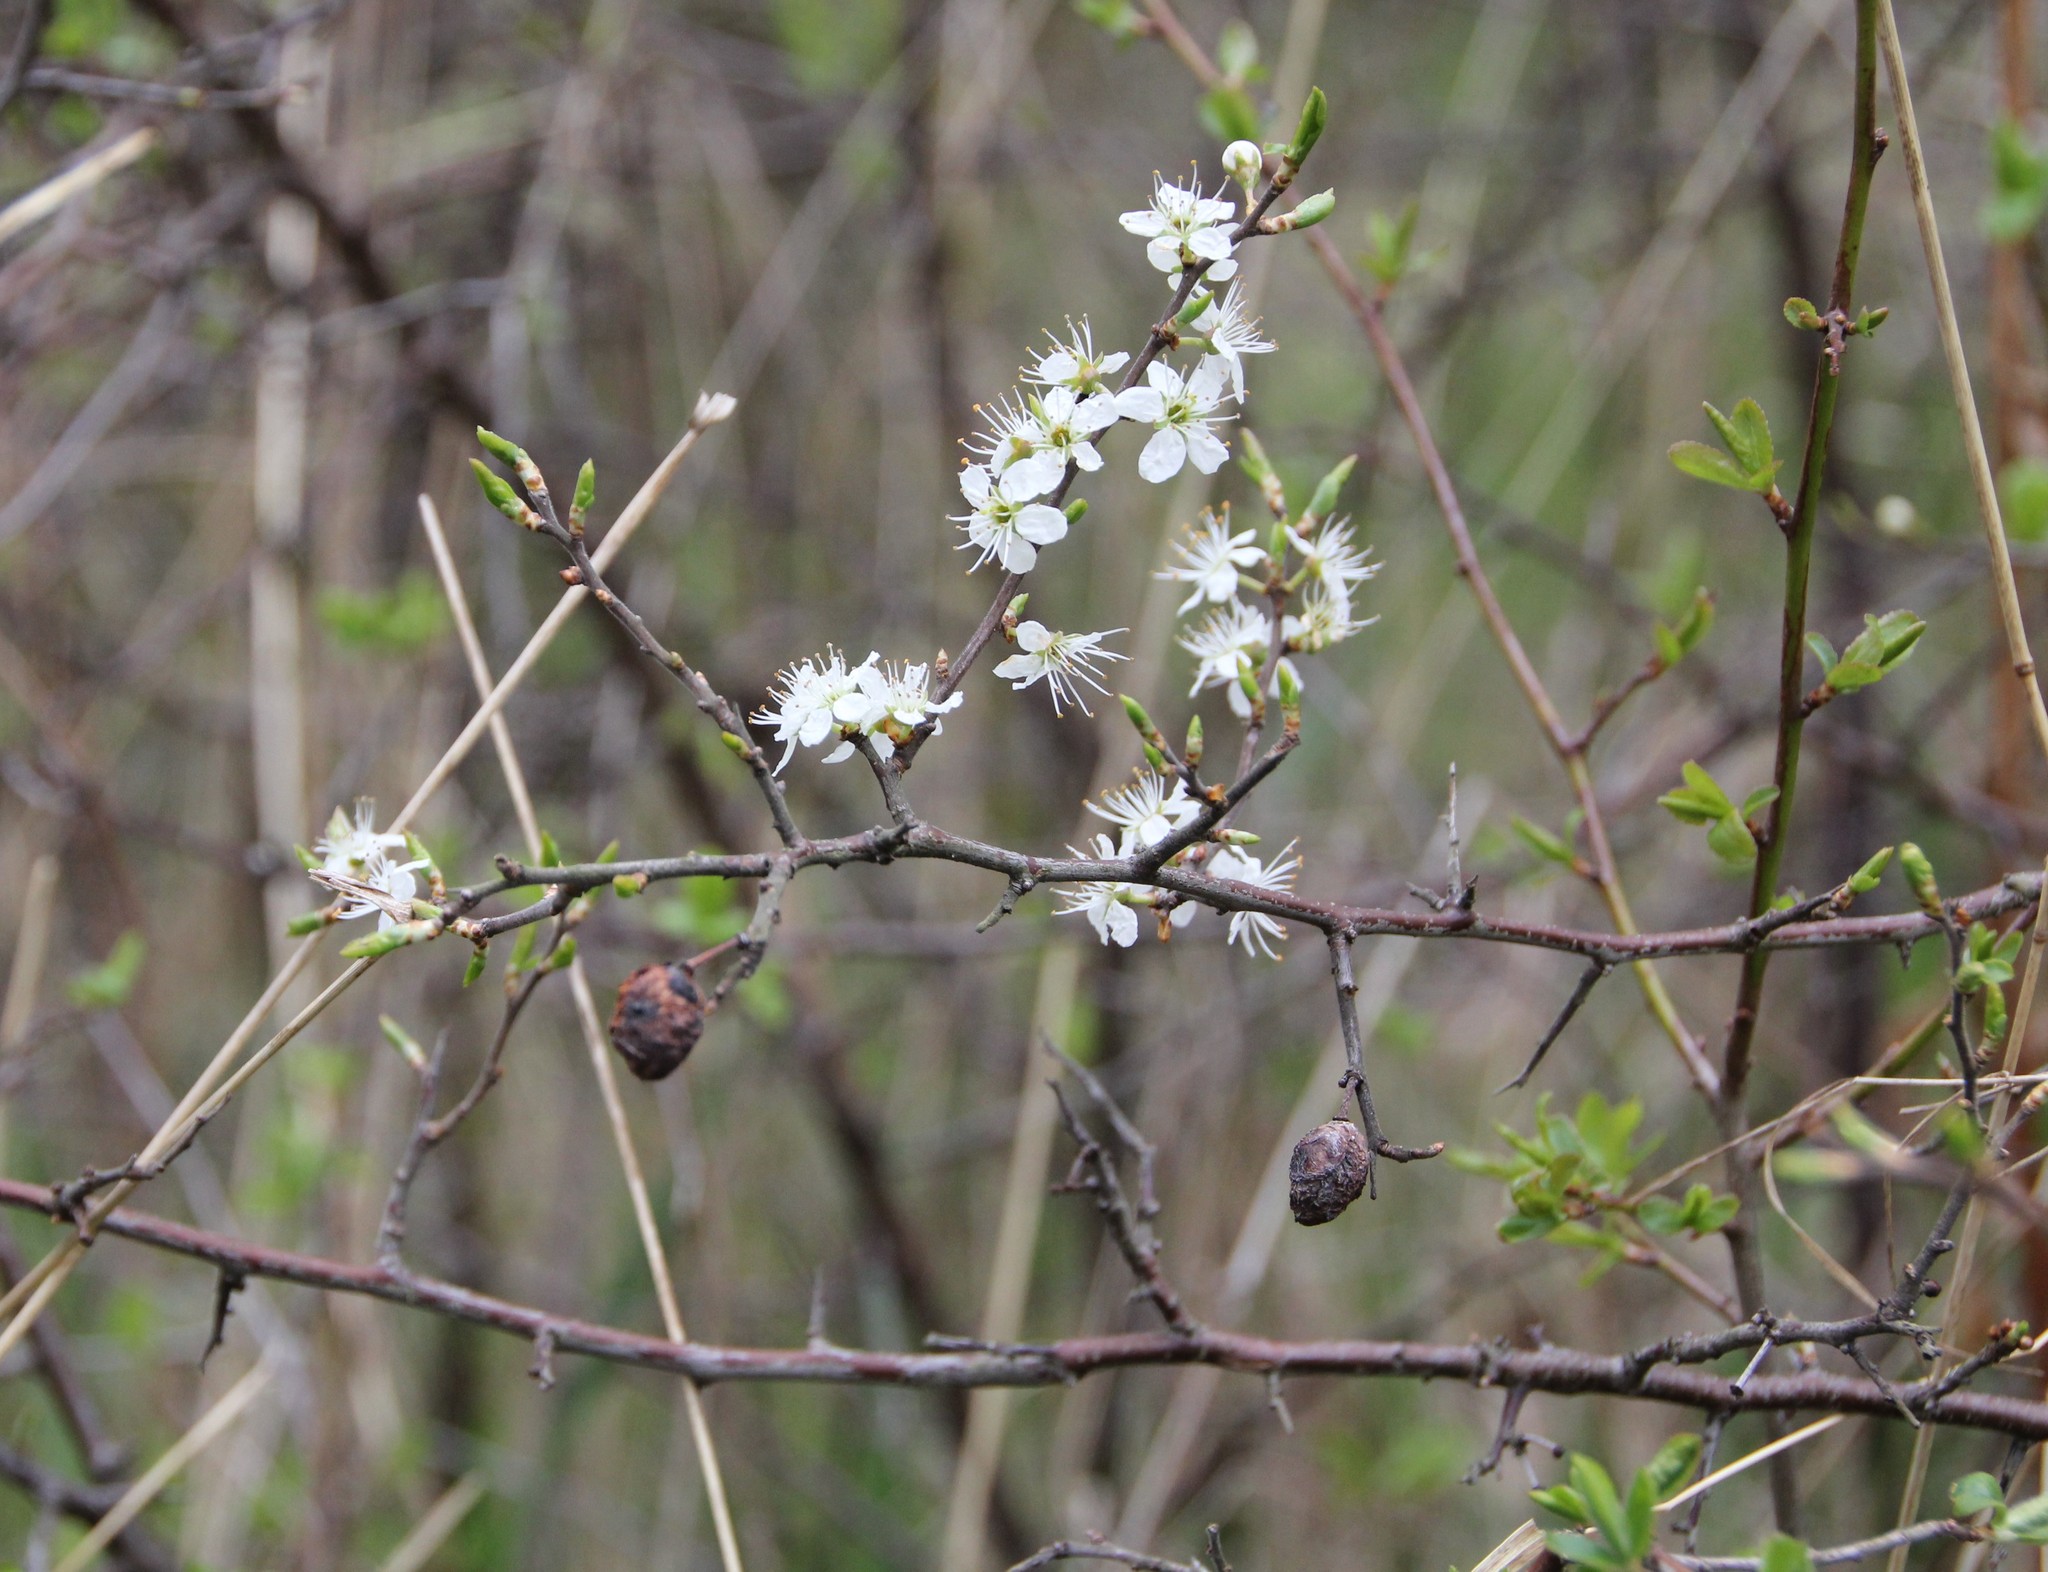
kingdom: Plantae
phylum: Tracheophyta
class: Magnoliopsida
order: Rosales
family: Rosaceae
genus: Prunus
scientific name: Prunus spinosa
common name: Blackthorn
